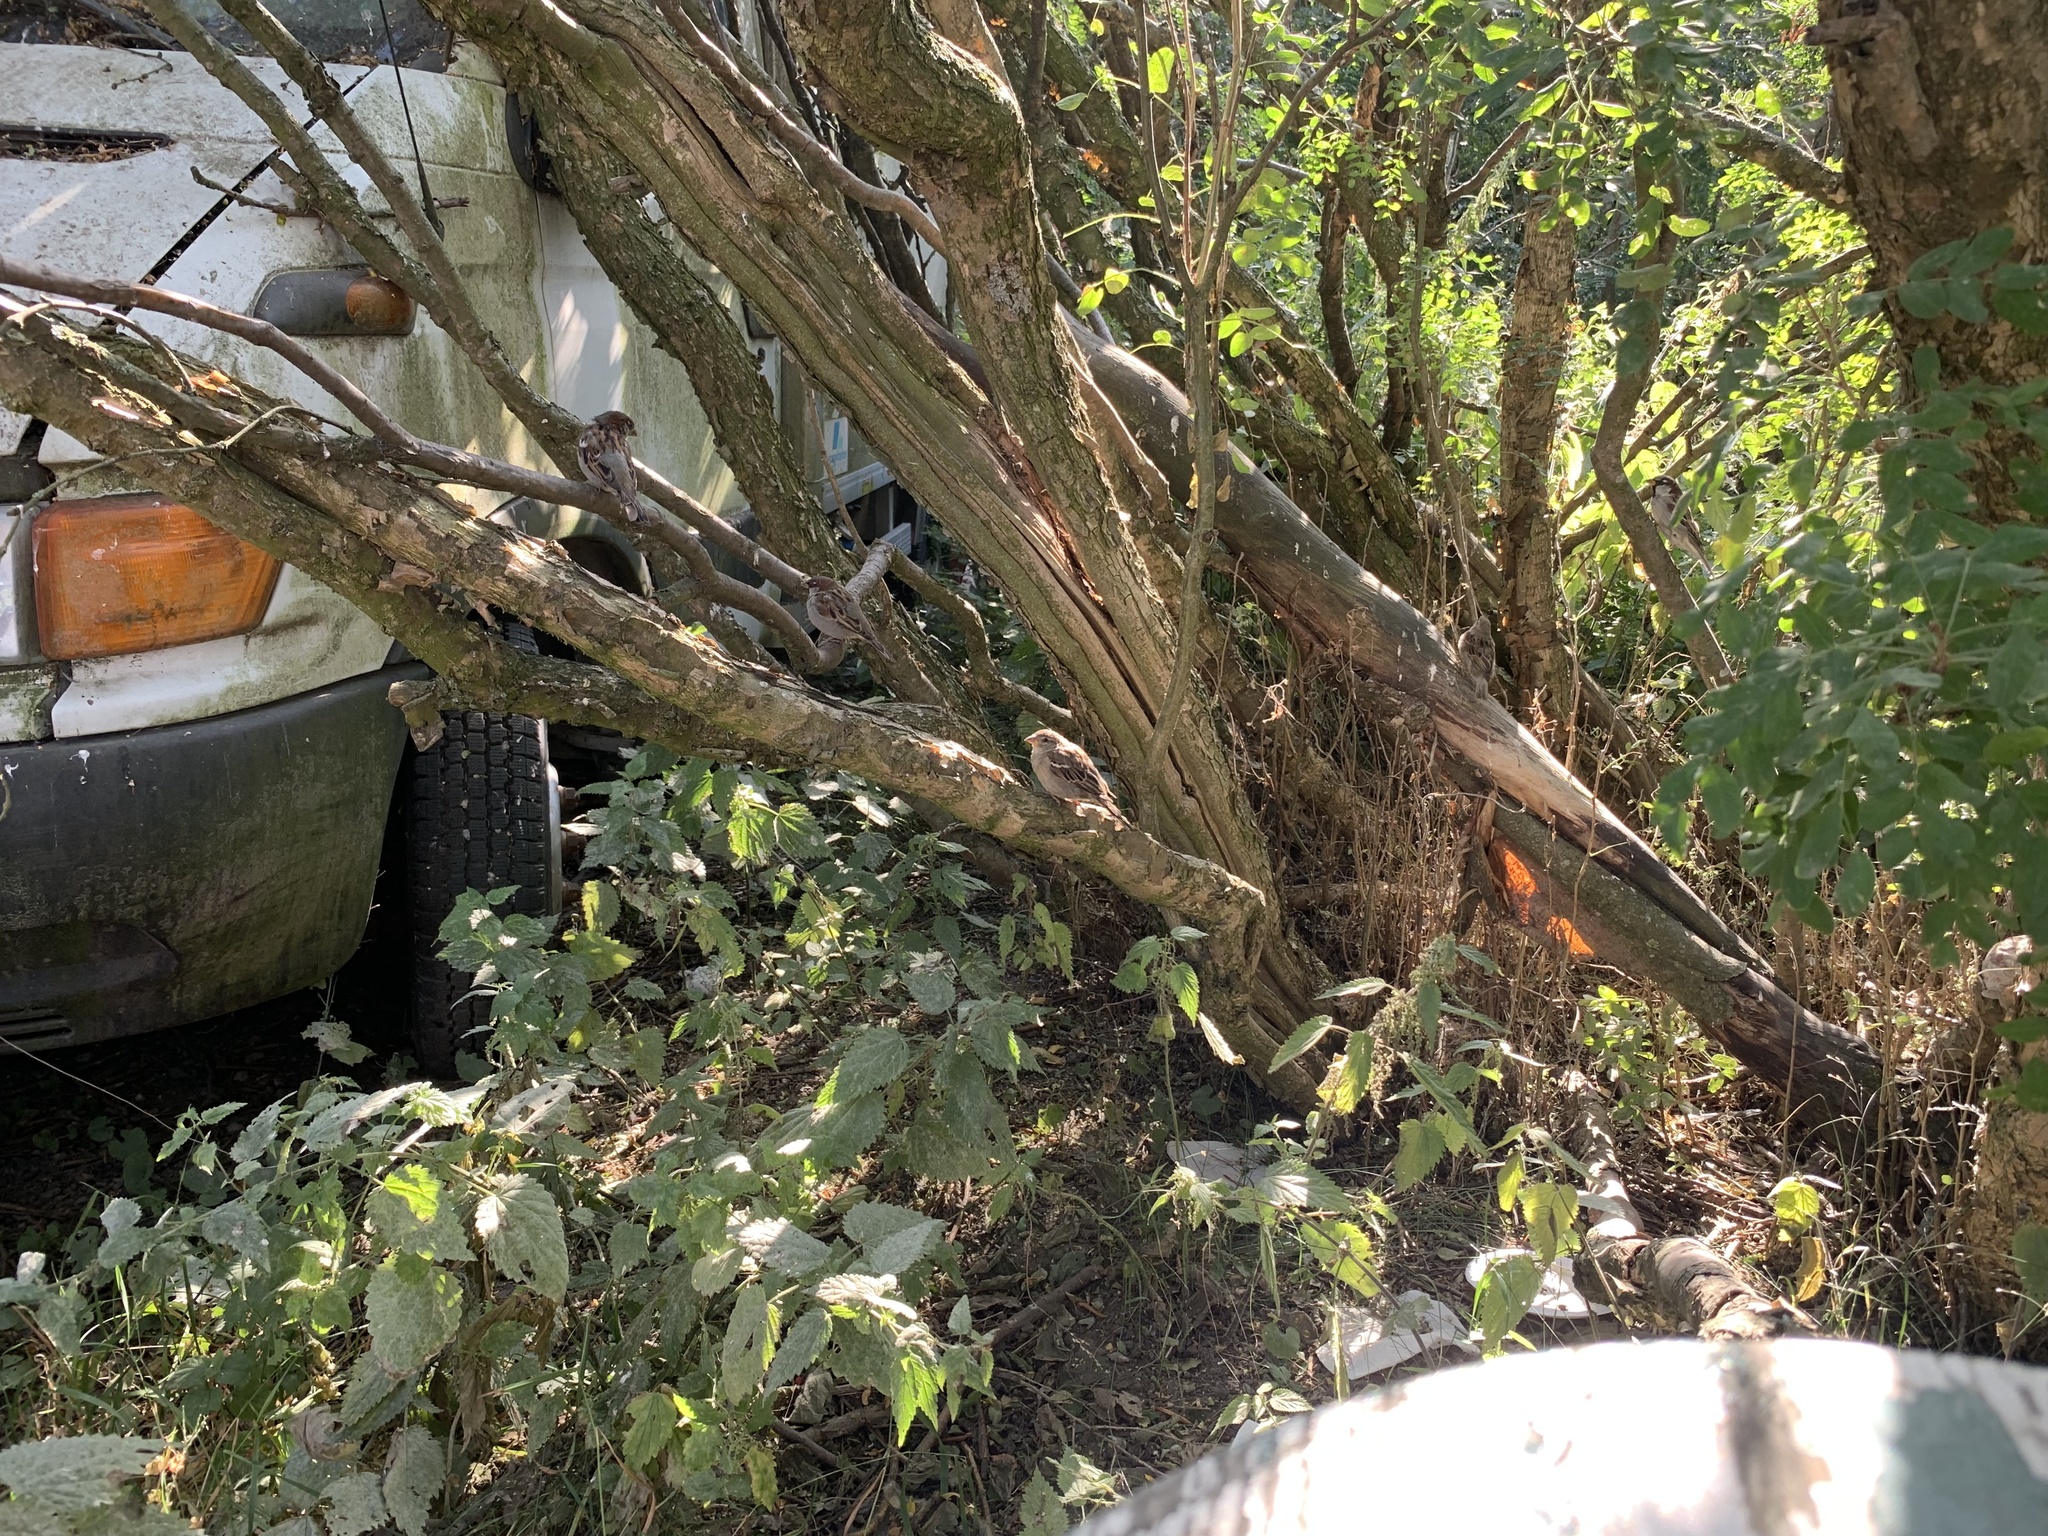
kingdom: Animalia
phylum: Chordata
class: Aves
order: Passeriformes
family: Passeridae
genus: Passer
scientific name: Passer domesticus
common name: House sparrow
